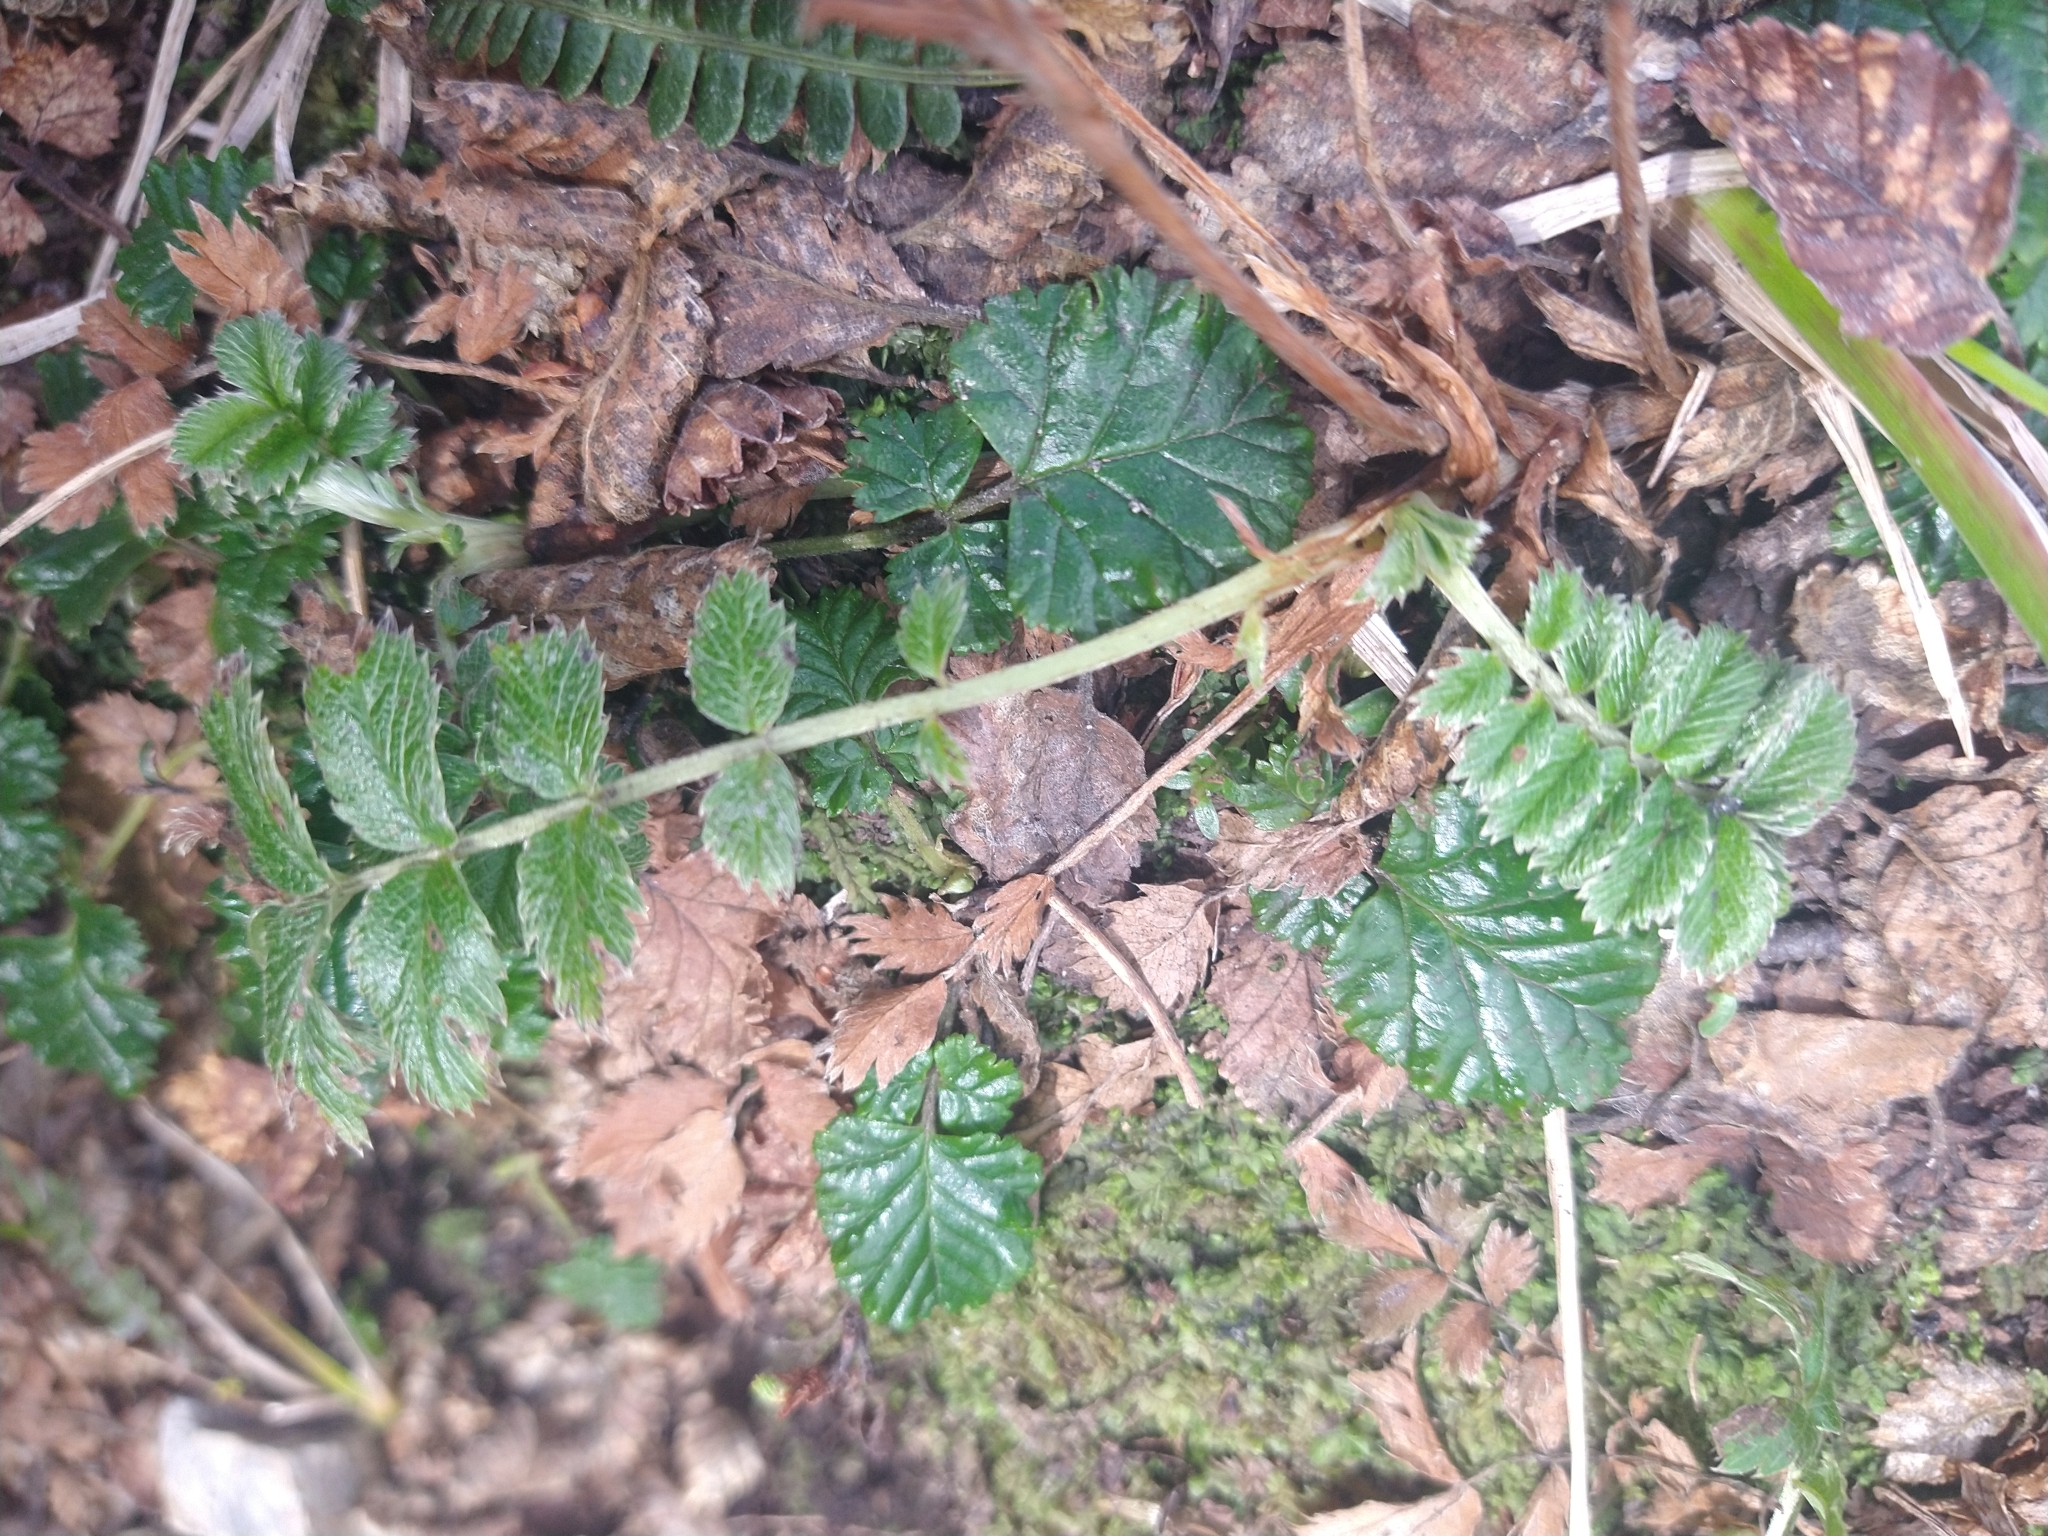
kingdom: Plantae
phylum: Tracheophyta
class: Magnoliopsida
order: Rosales
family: Rosaceae
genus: Acaena
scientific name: Acaena magellanica
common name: New zealand burr
